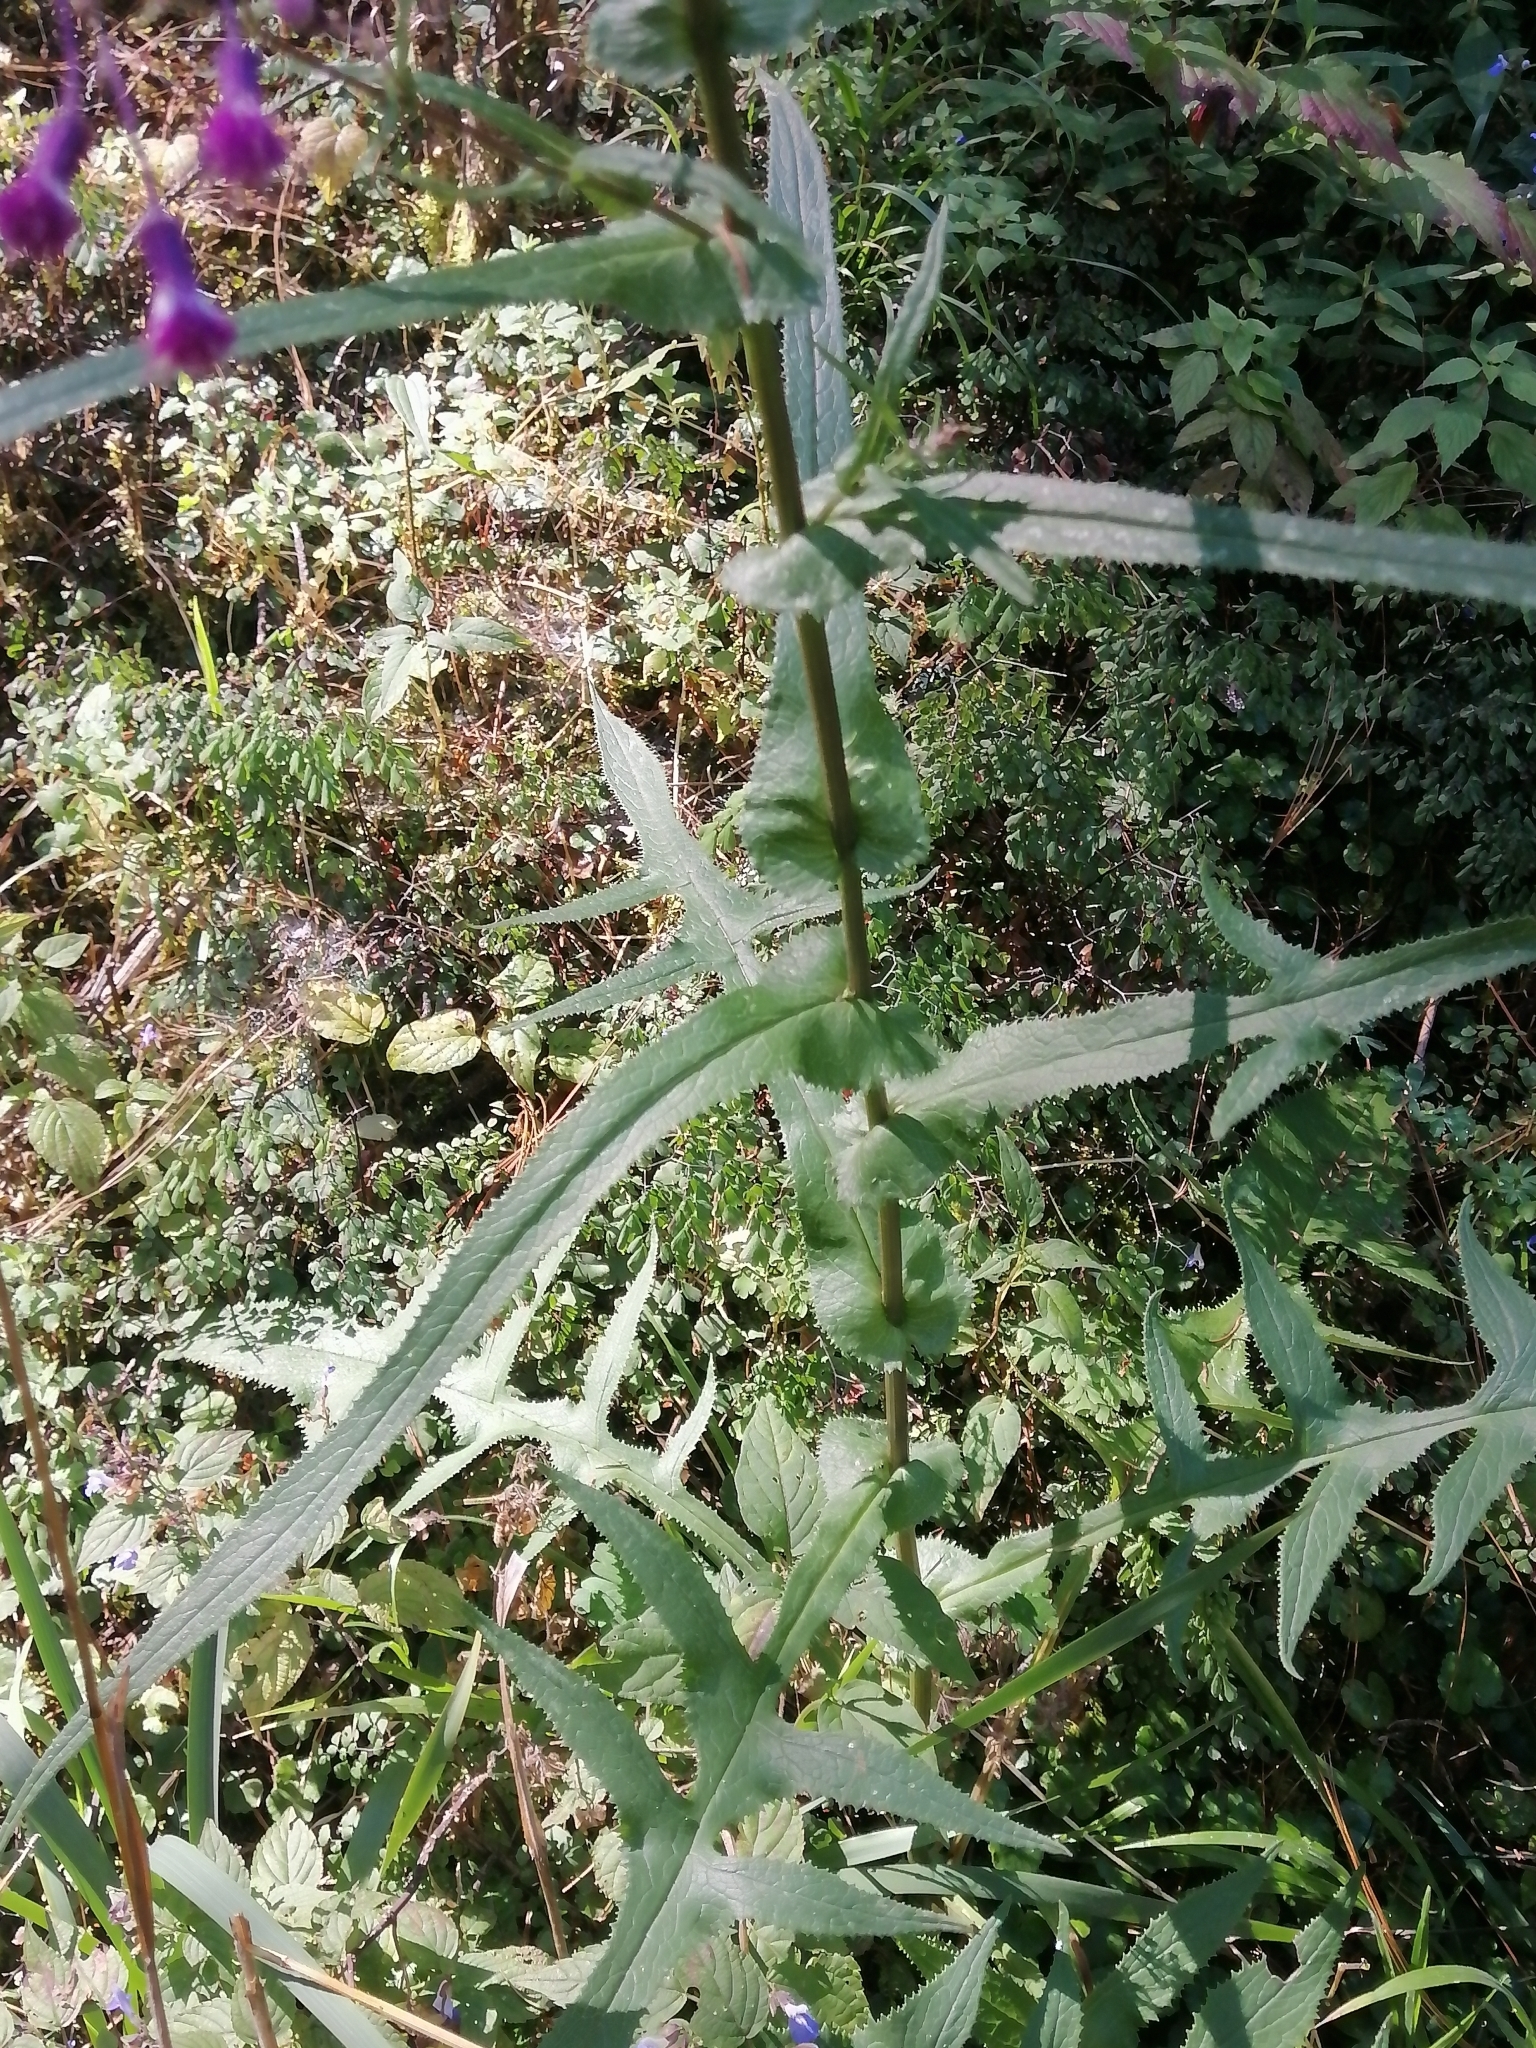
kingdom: Plantae
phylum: Tracheophyta
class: Magnoliopsida
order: Asterales
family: Asteraceae
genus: Senecio
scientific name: Senecio callosus
